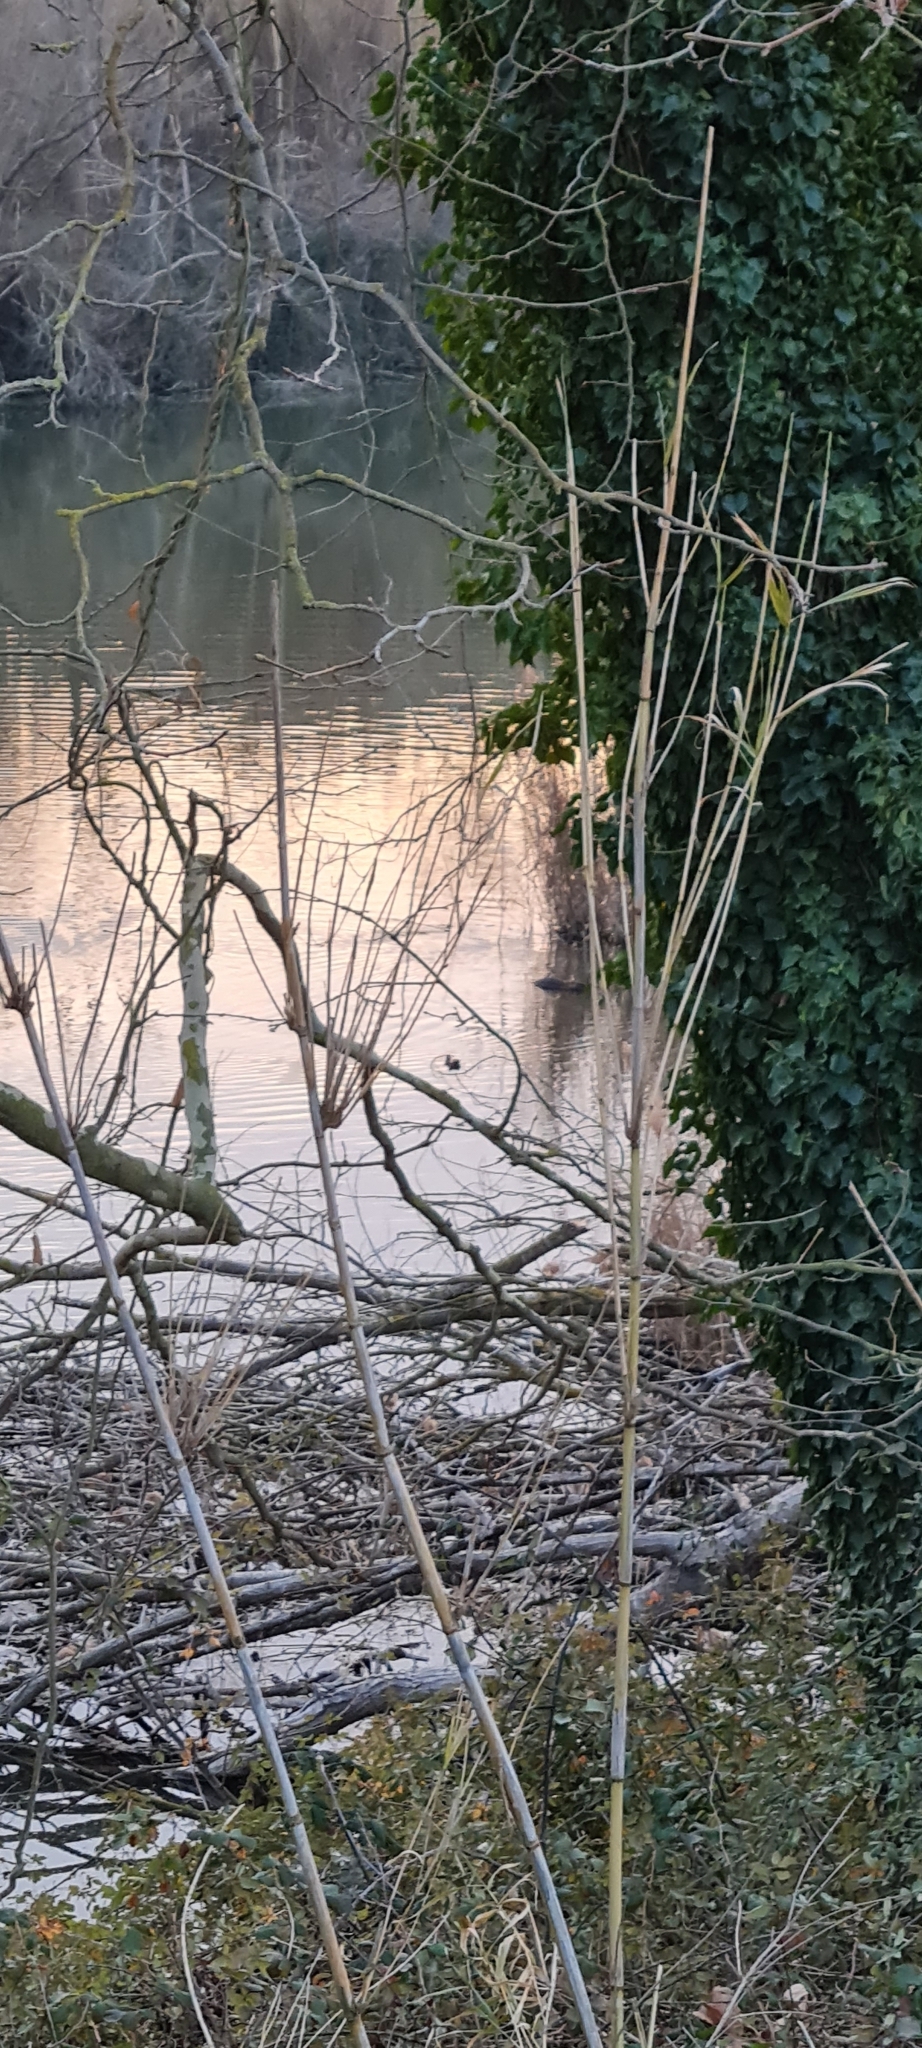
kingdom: Animalia
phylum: Chordata
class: Mammalia
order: Rodentia
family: Myocastoridae
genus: Myocastor
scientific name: Myocastor coypus
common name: Coypu
